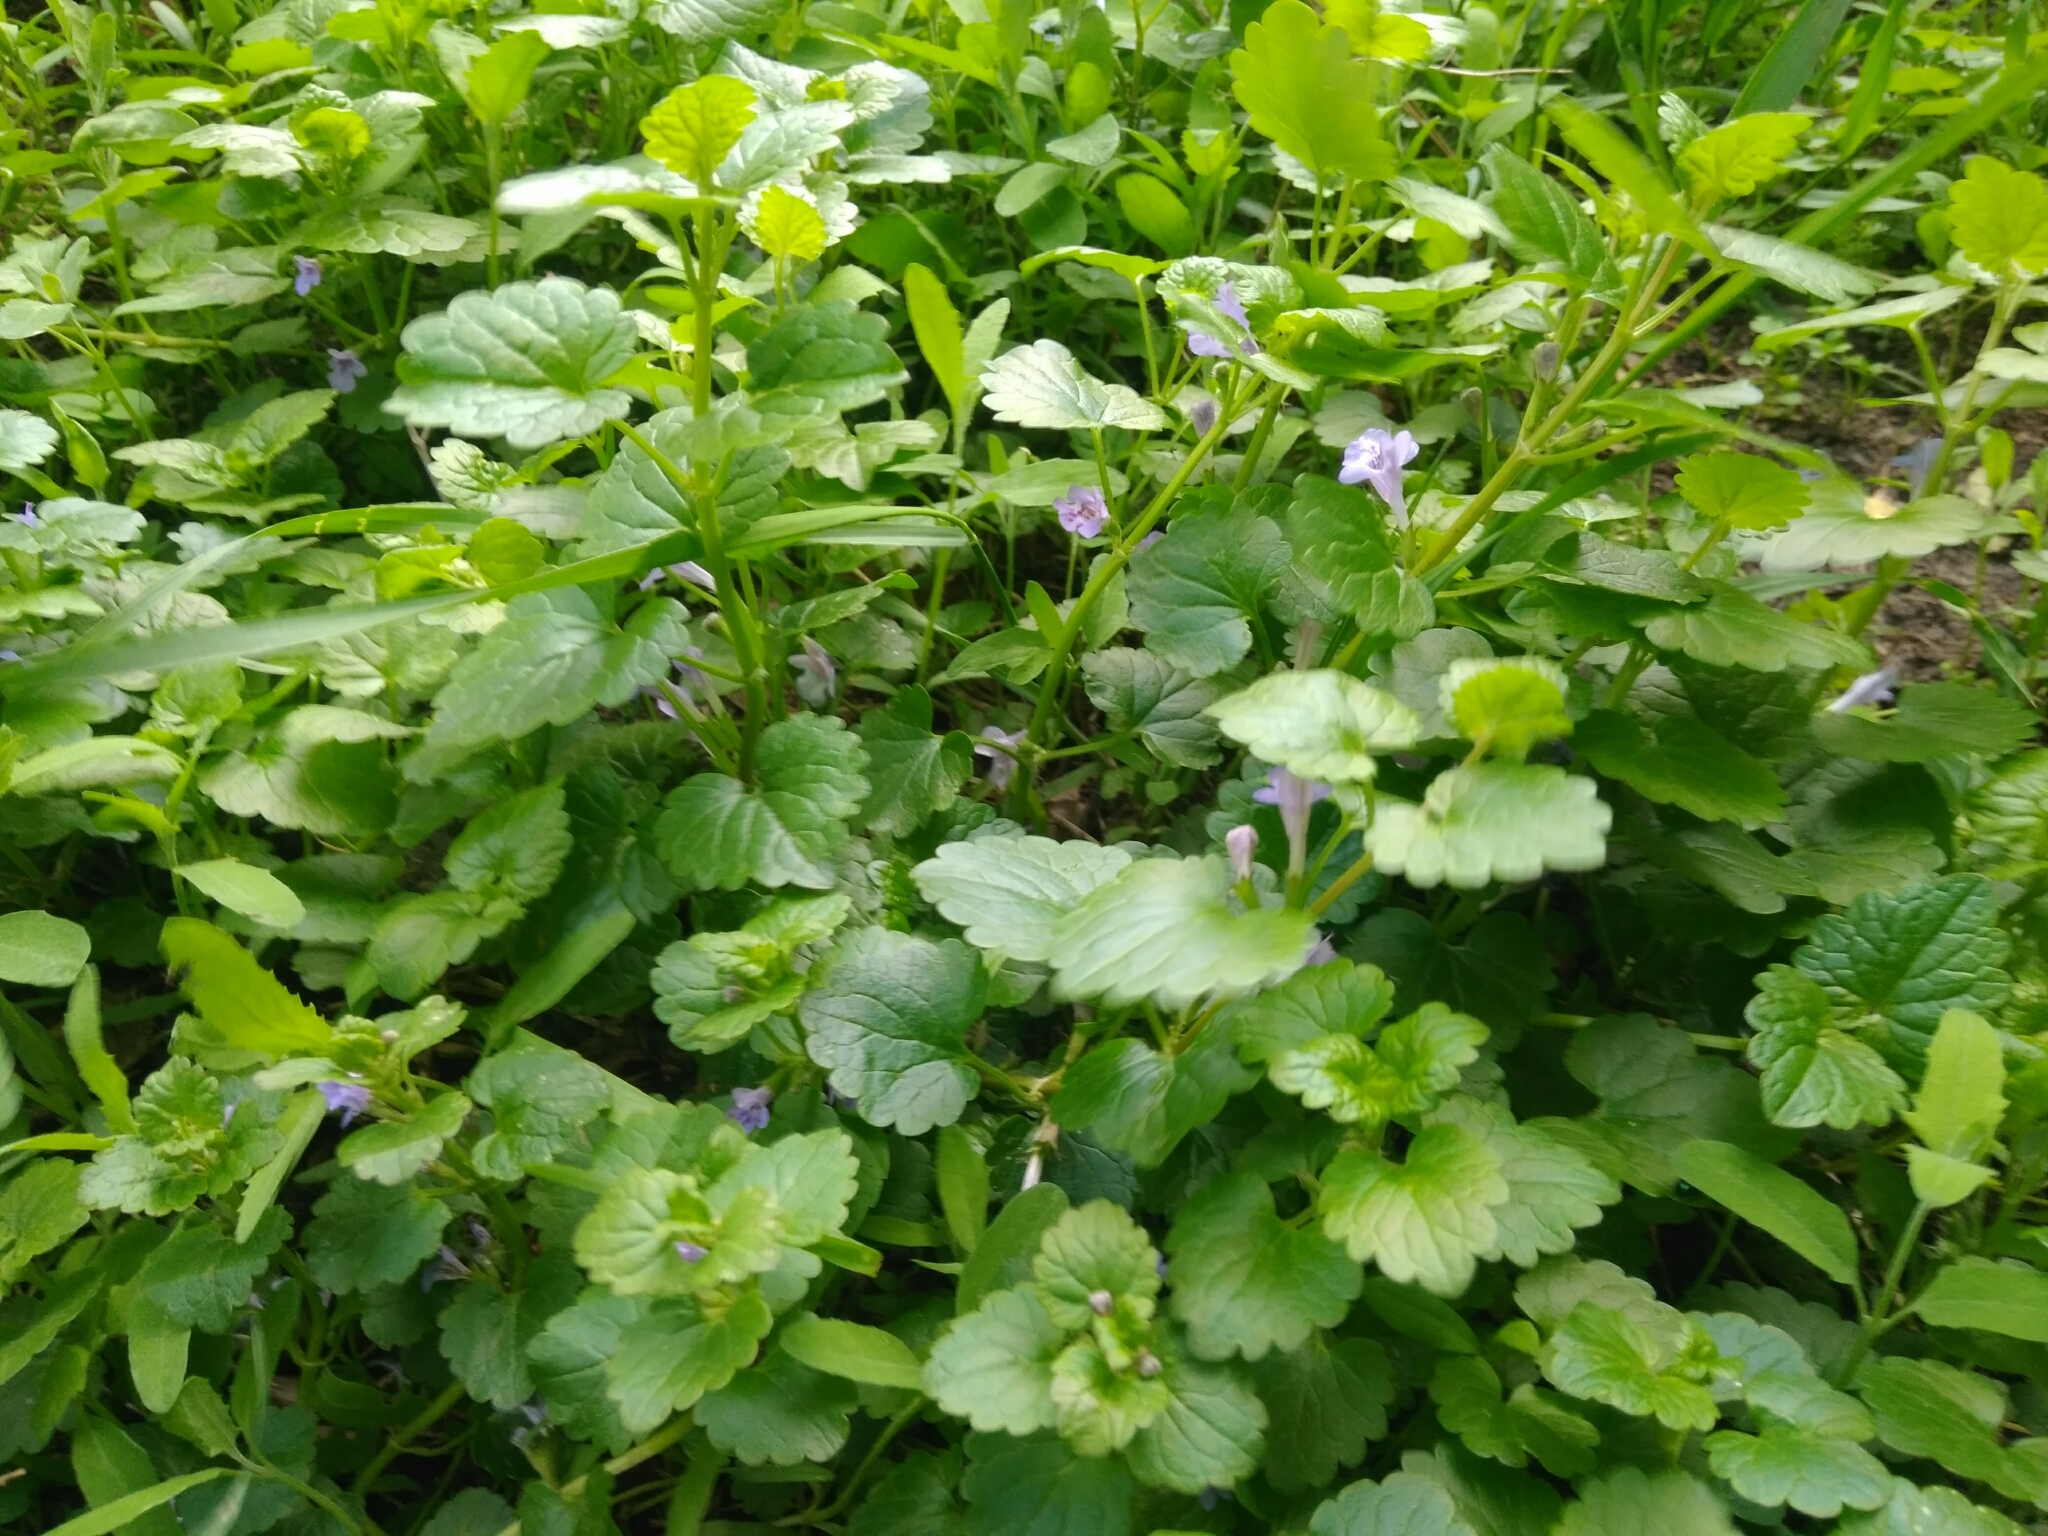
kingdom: Plantae
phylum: Tracheophyta
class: Magnoliopsida
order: Lamiales
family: Lamiaceae
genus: Glechoma
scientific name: Glechoma hederacea
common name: Ground ivy
